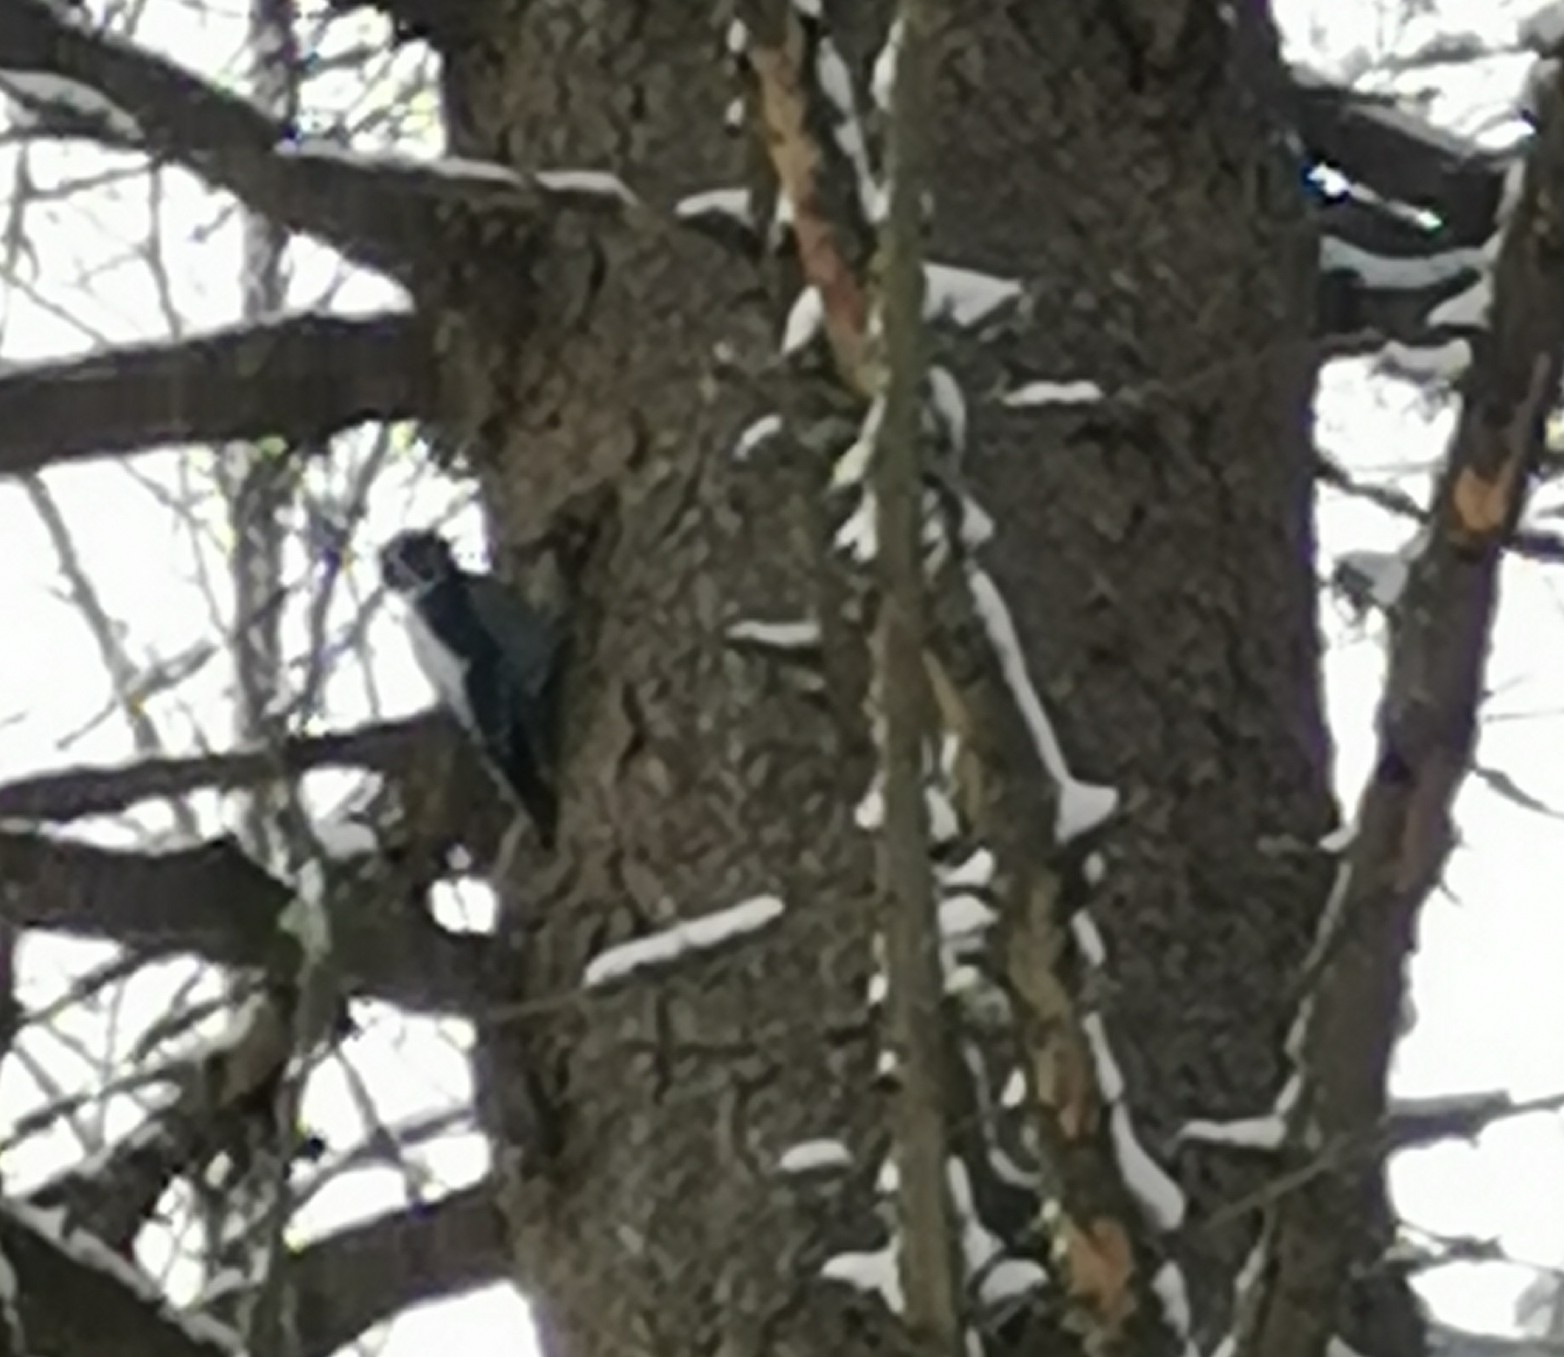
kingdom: Animalia
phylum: Chordata
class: Aves
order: Piciformes
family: Picidae
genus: Picoides
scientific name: Picoides tridactylus
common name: Eurasian three-toed woodpecker
